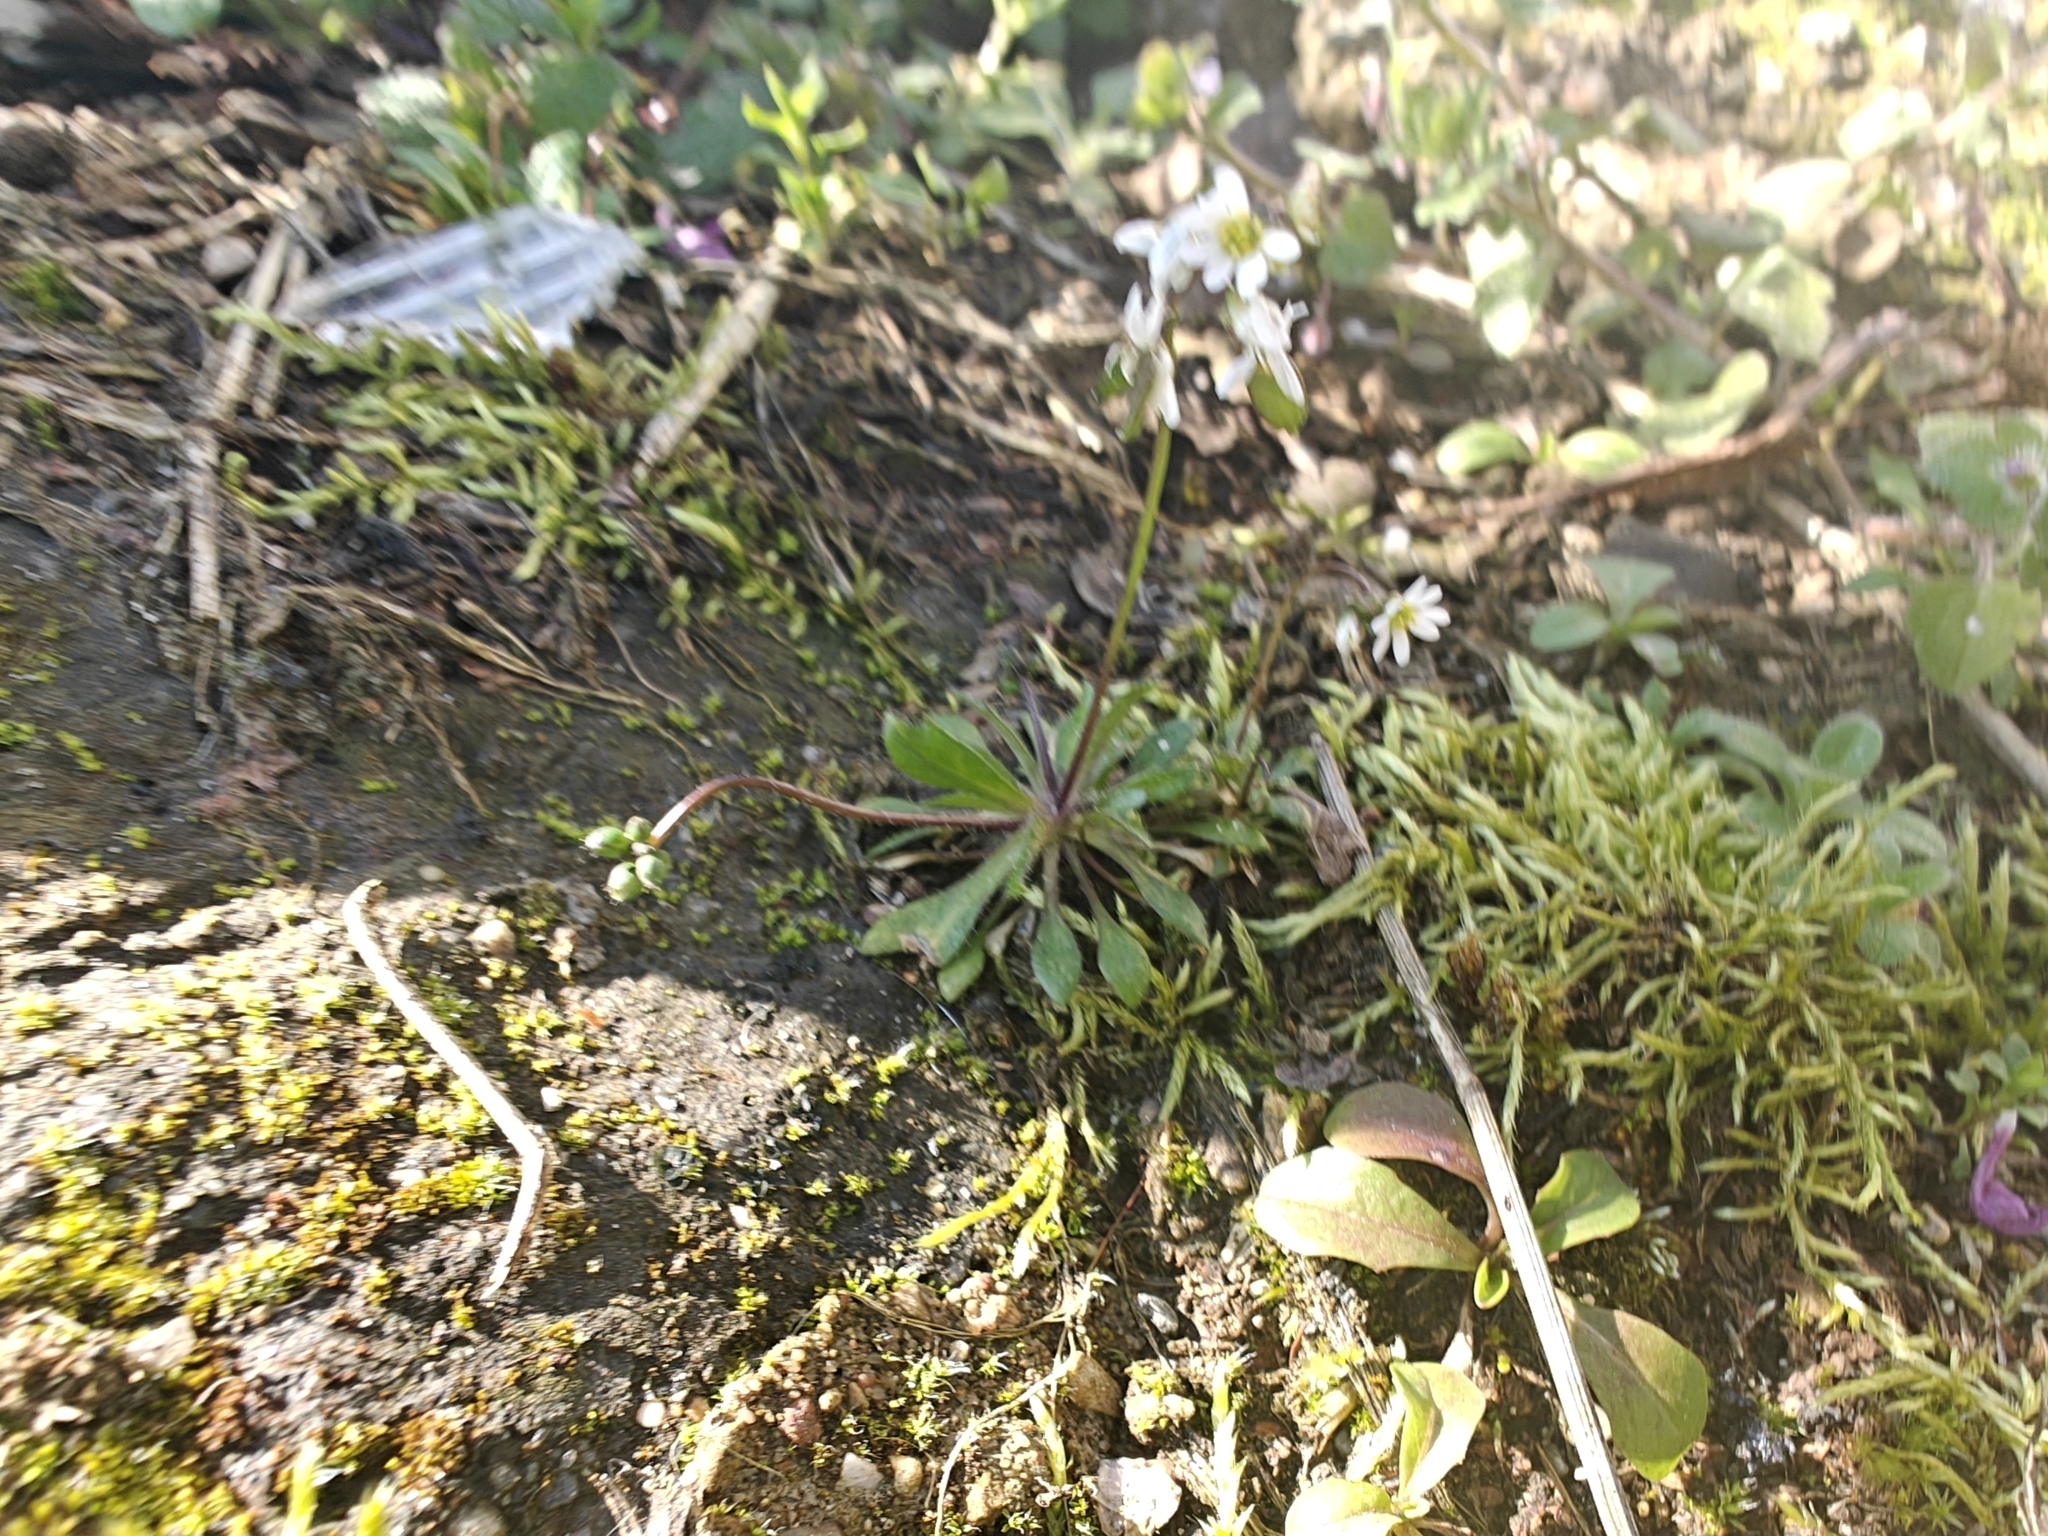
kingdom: Plantae
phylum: Tracheophyta
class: Magnoliopsida
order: Brassicales
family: Brassicaceae
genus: Draba
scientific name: Draba verna
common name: Spring draba
